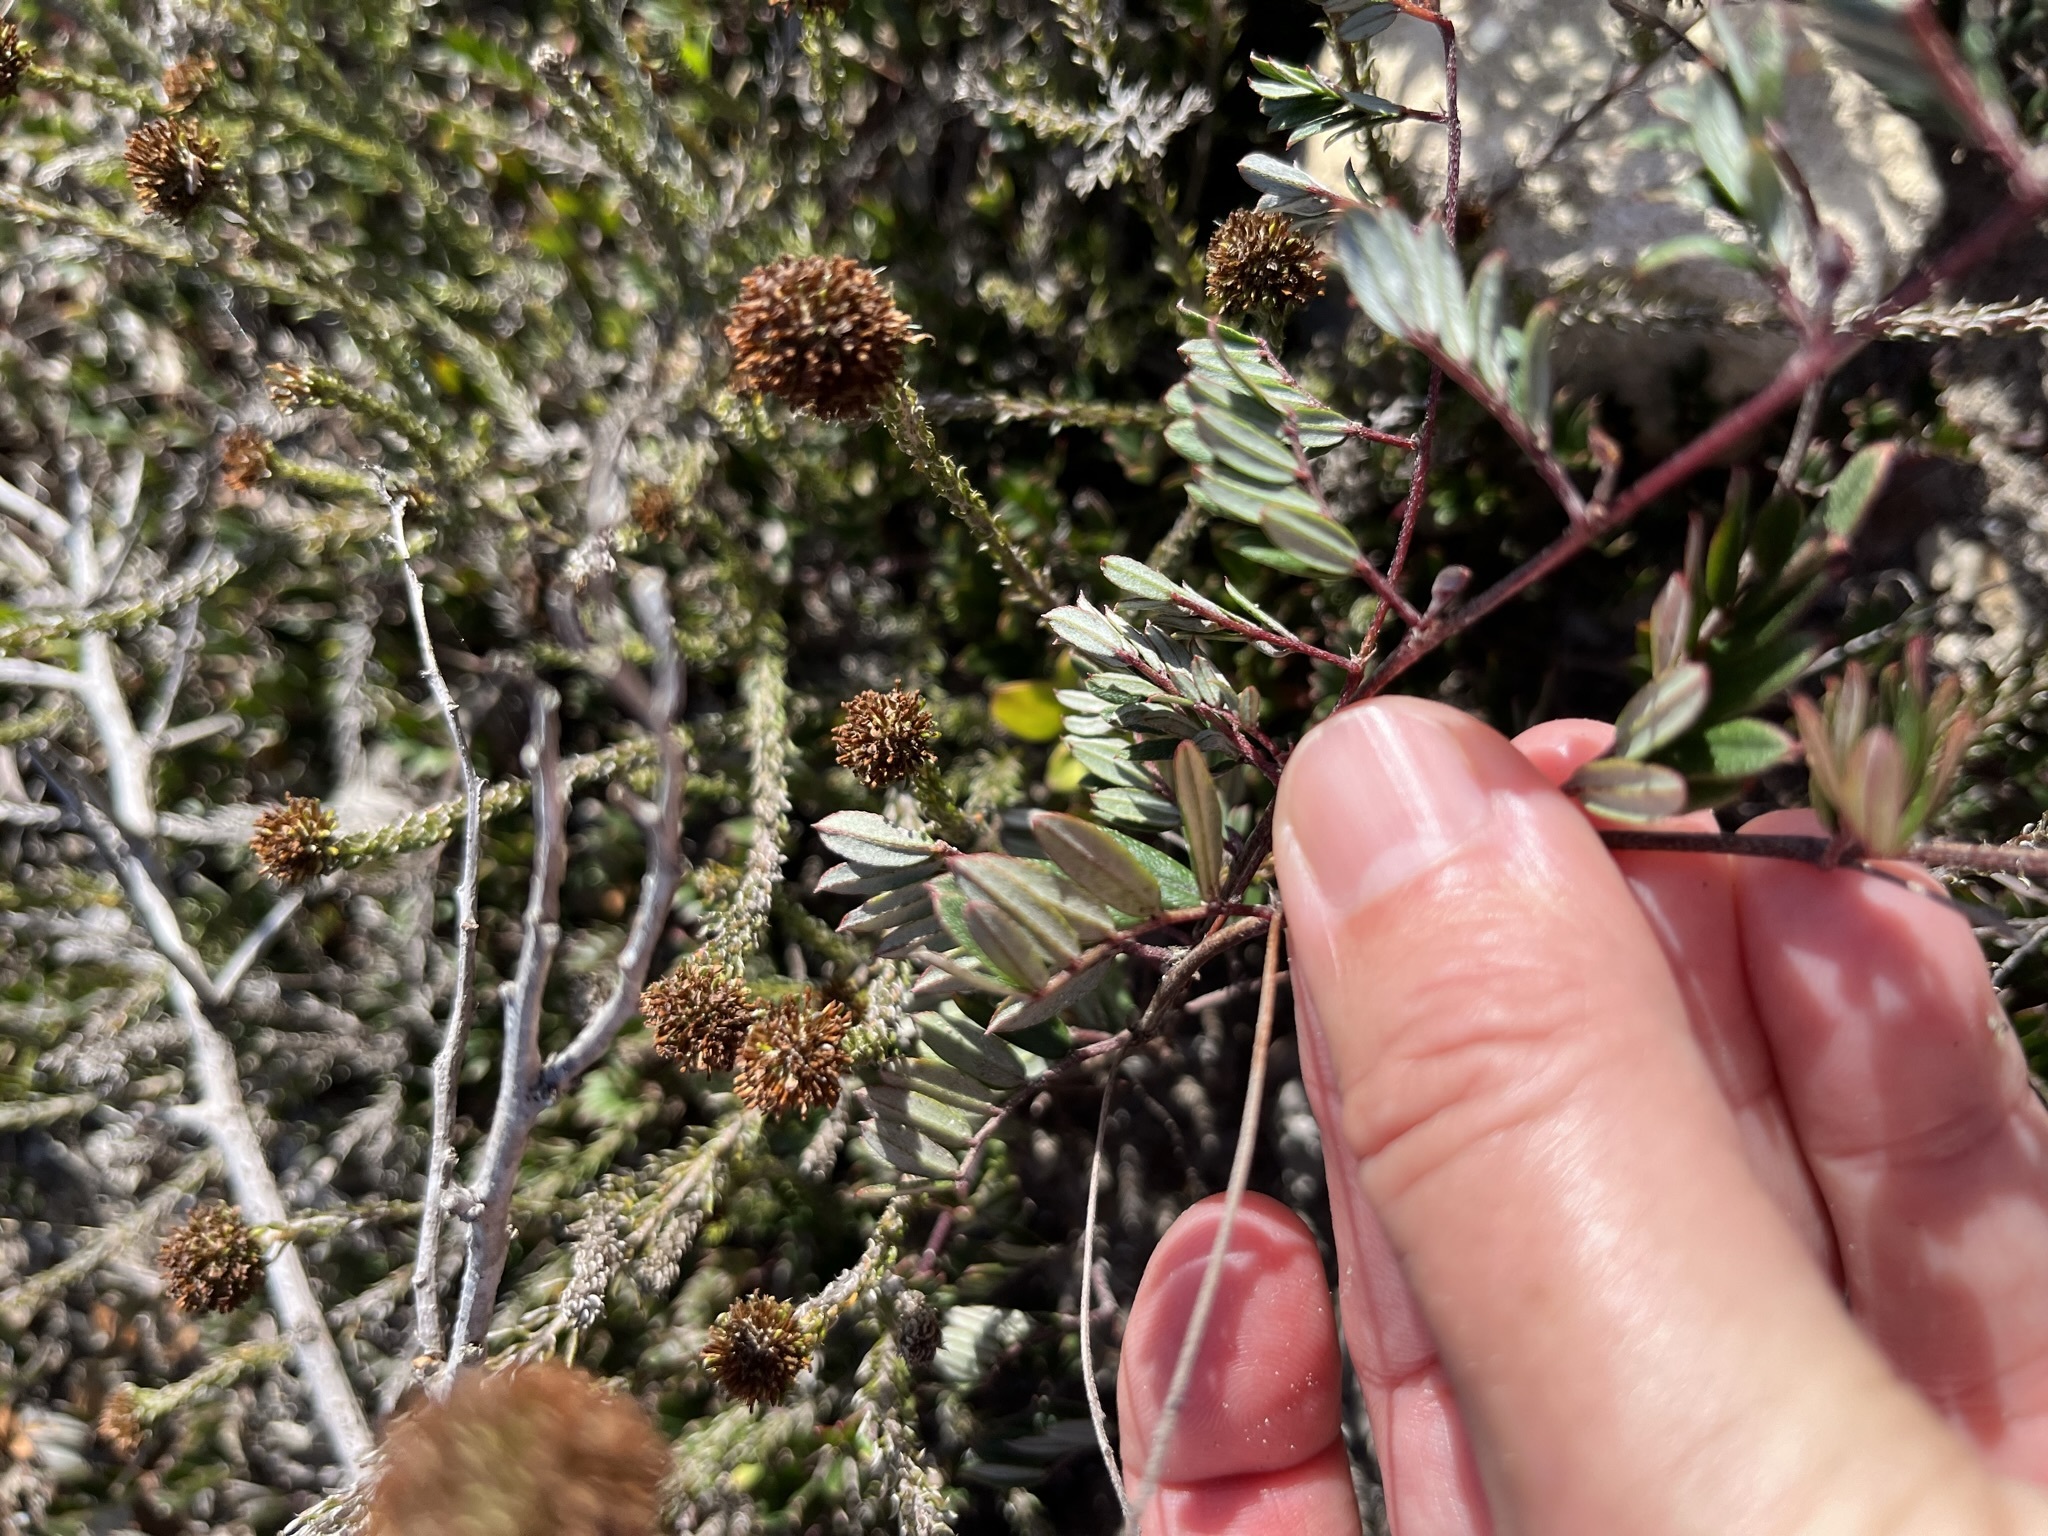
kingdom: Plantae
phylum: Tracheophyta
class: Magnoliopsida
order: Fabales
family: Fabaceae
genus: Indigofera
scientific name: Indigofera mundiana
